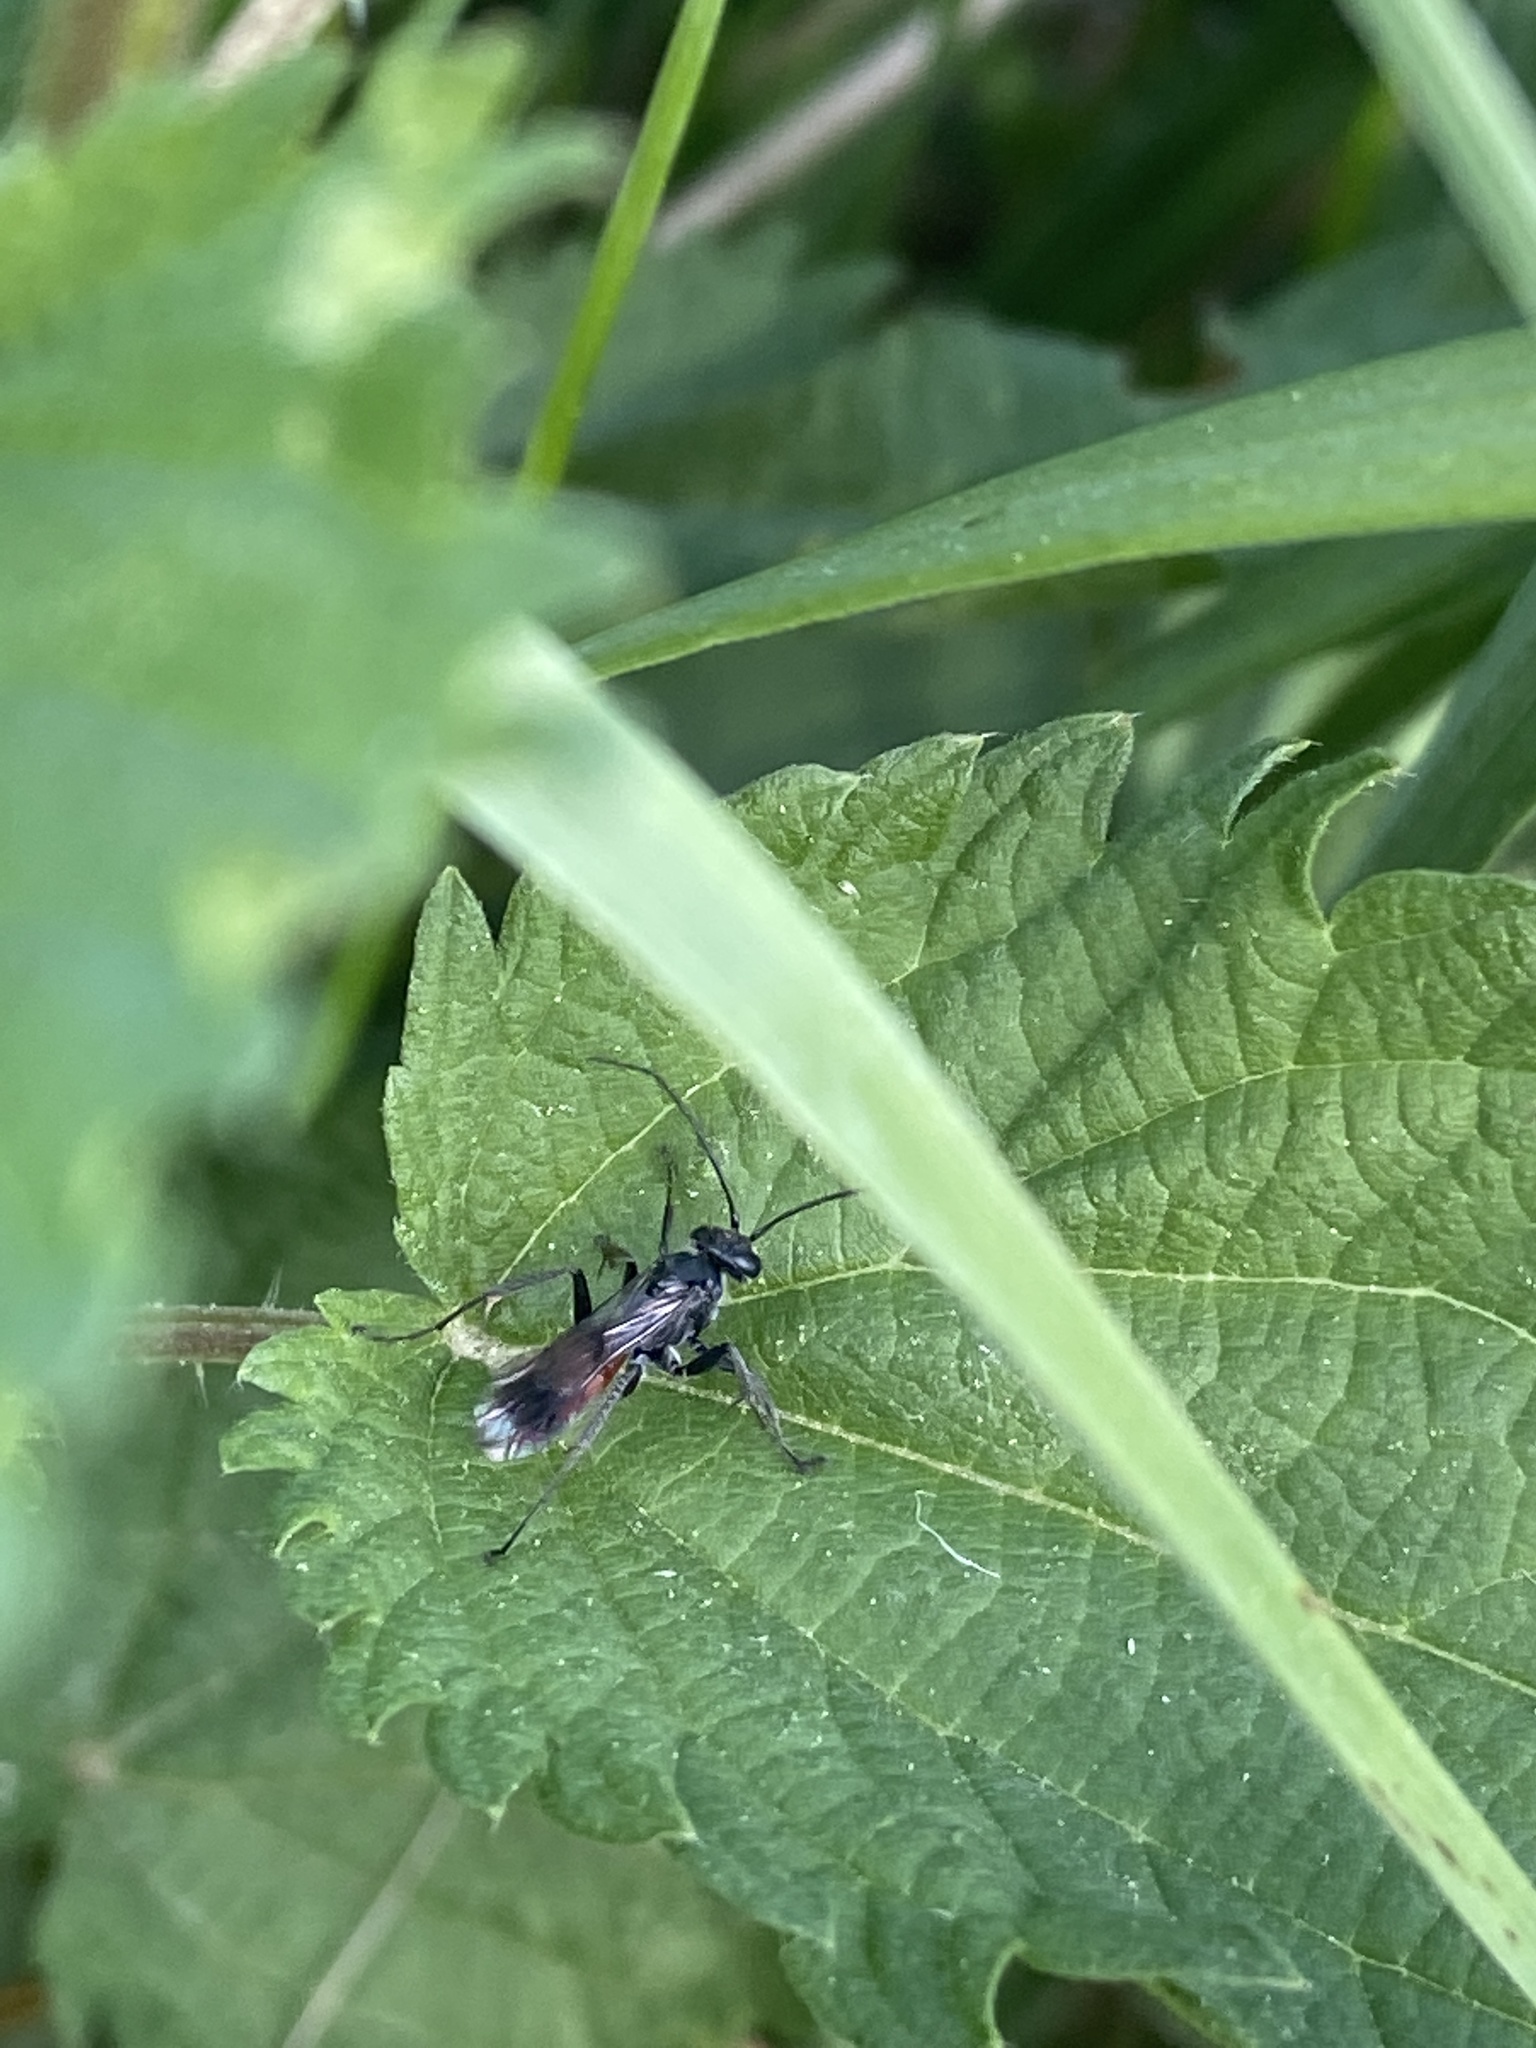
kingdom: Animalia
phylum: Arthropoda
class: Insecta
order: Hymenoptera
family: Pompilidae
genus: Caliadurgus
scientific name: Caliadurgus fasciatellus
